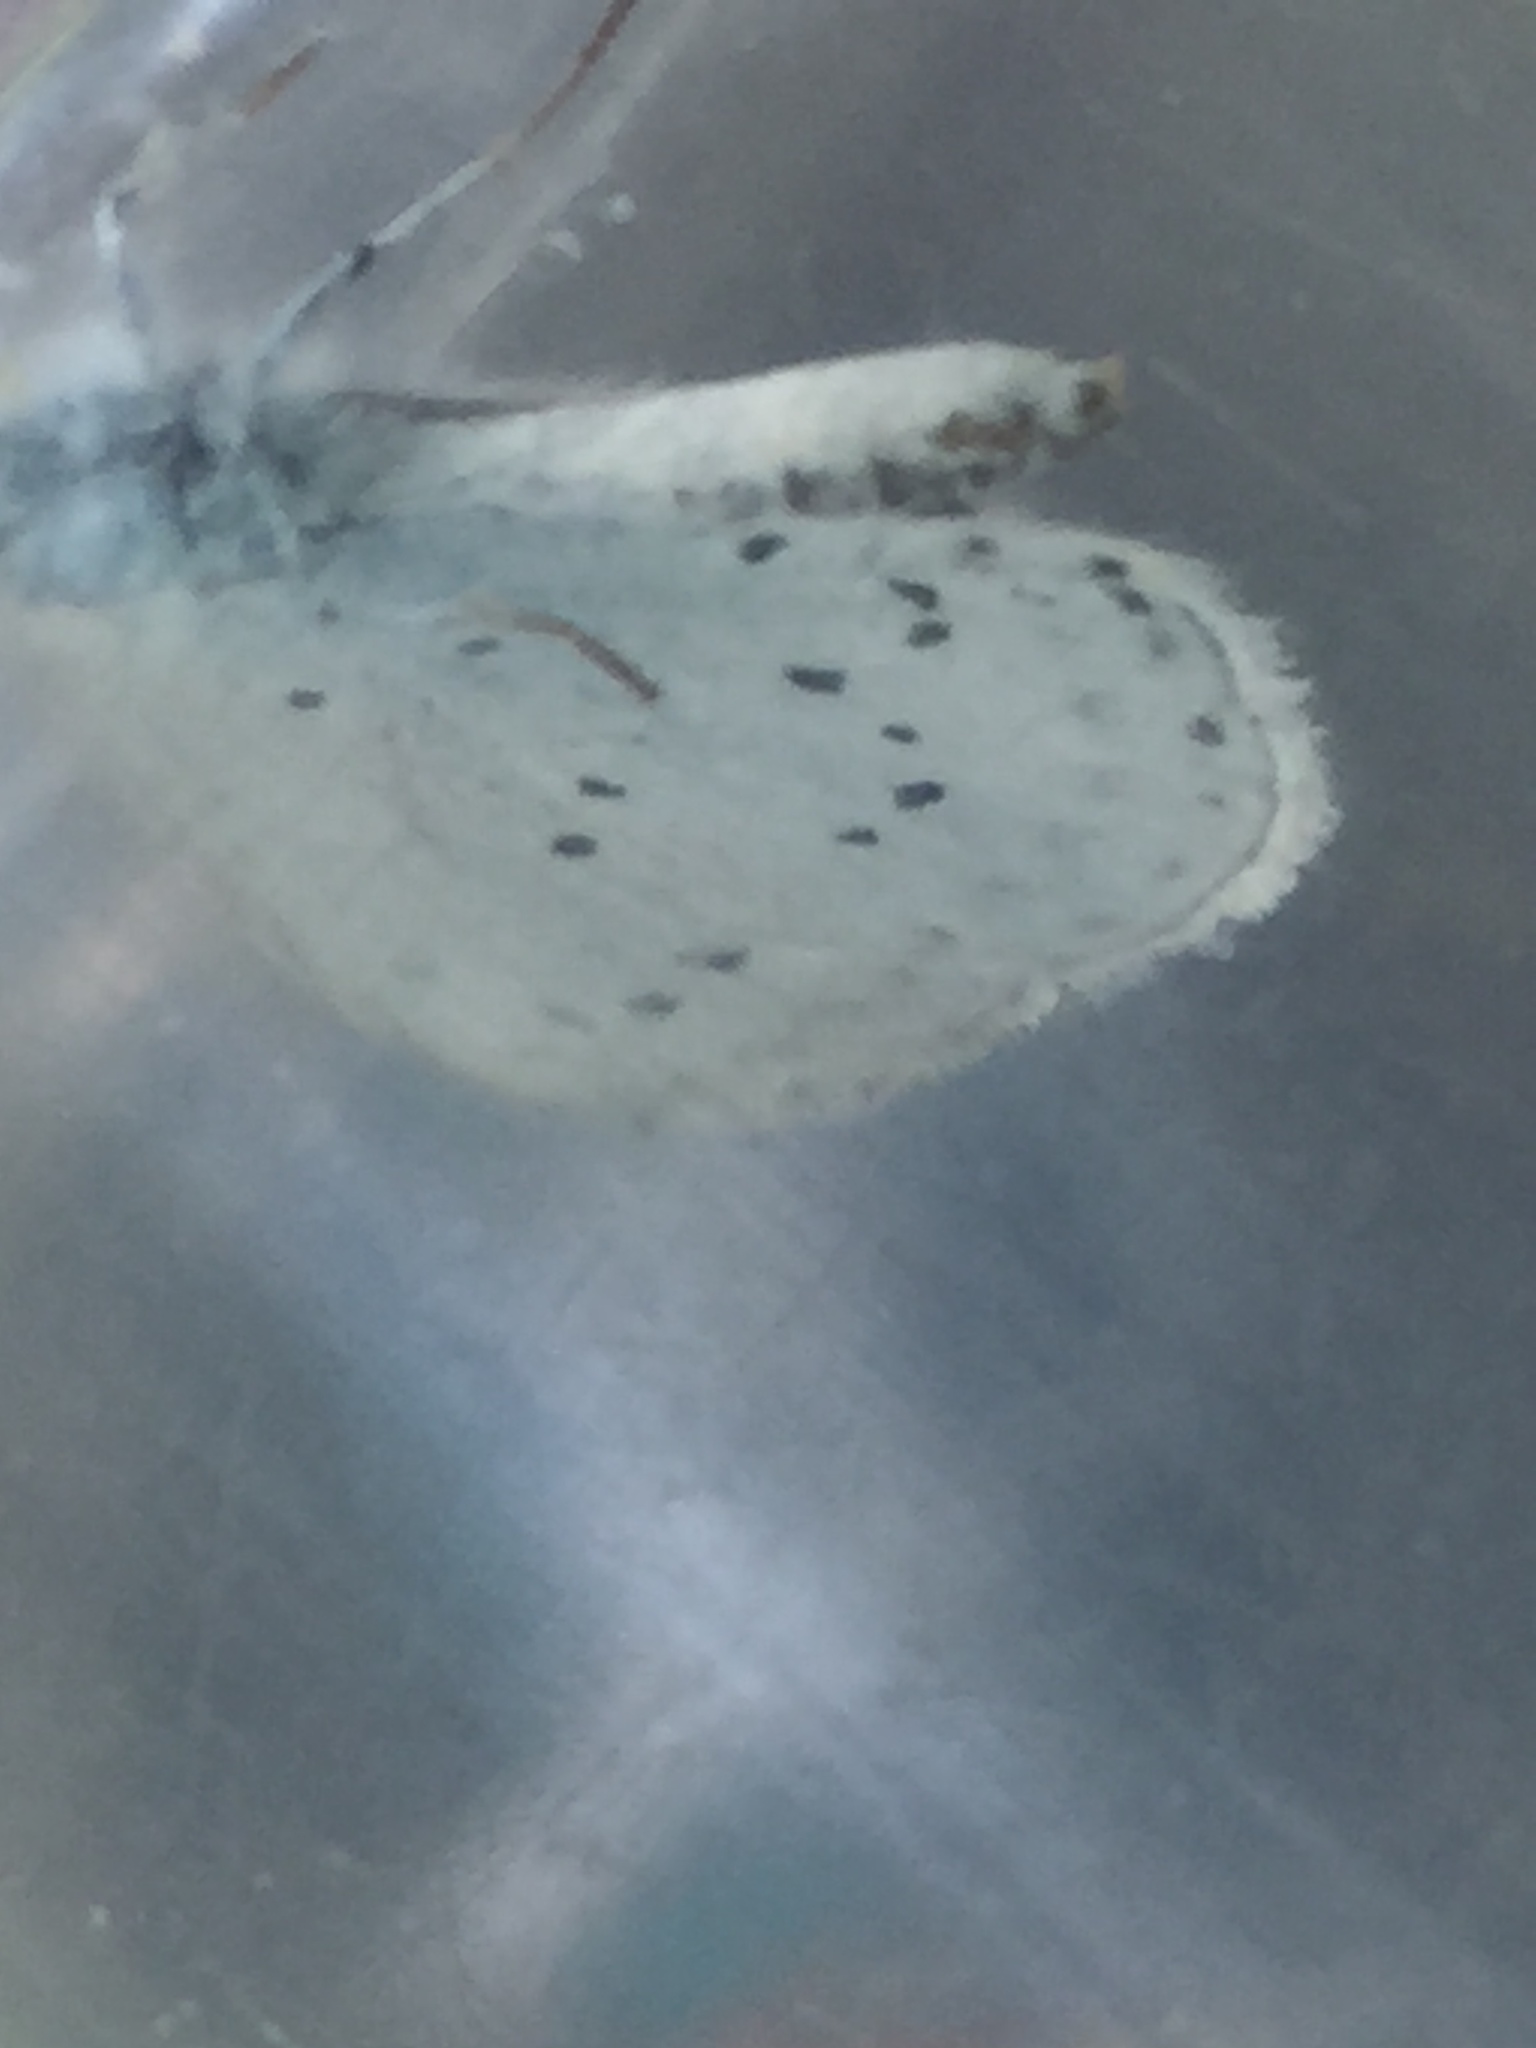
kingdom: Animalia
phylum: Arthropoda
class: Insecta
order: Lepidoptera
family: Lycaenidae
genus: Celastrina
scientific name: Celastrina argiolus
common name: Holly blue
